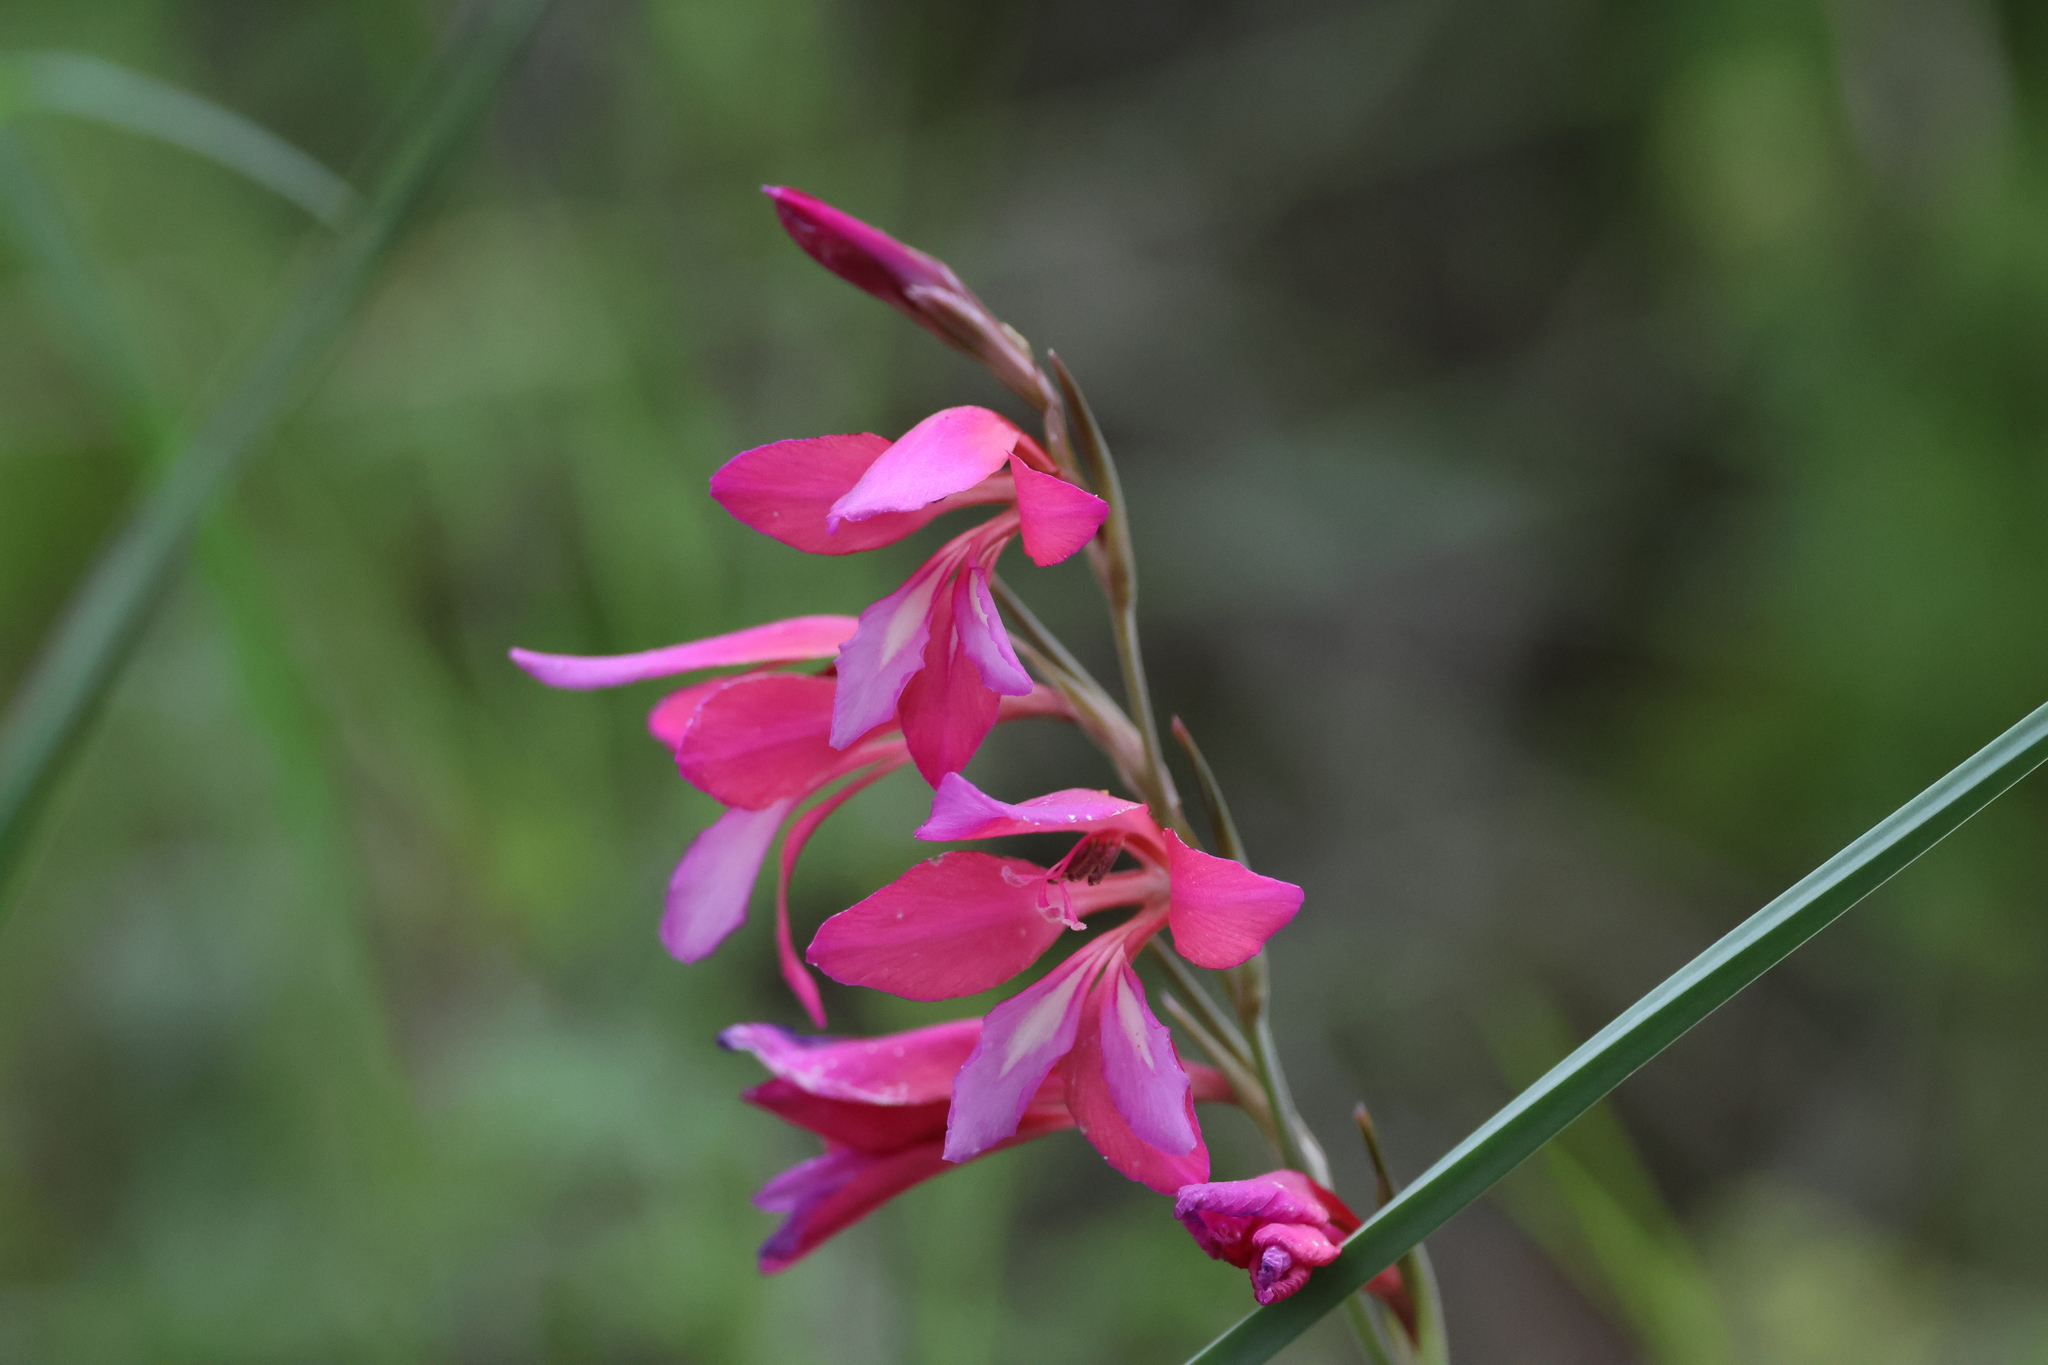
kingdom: Plantae
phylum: Tracheophyta
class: Liliopsida
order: Asparagales
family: Iridaceae
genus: Gladiolus
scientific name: Gladiolus illyricus
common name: Wild gladiolus
